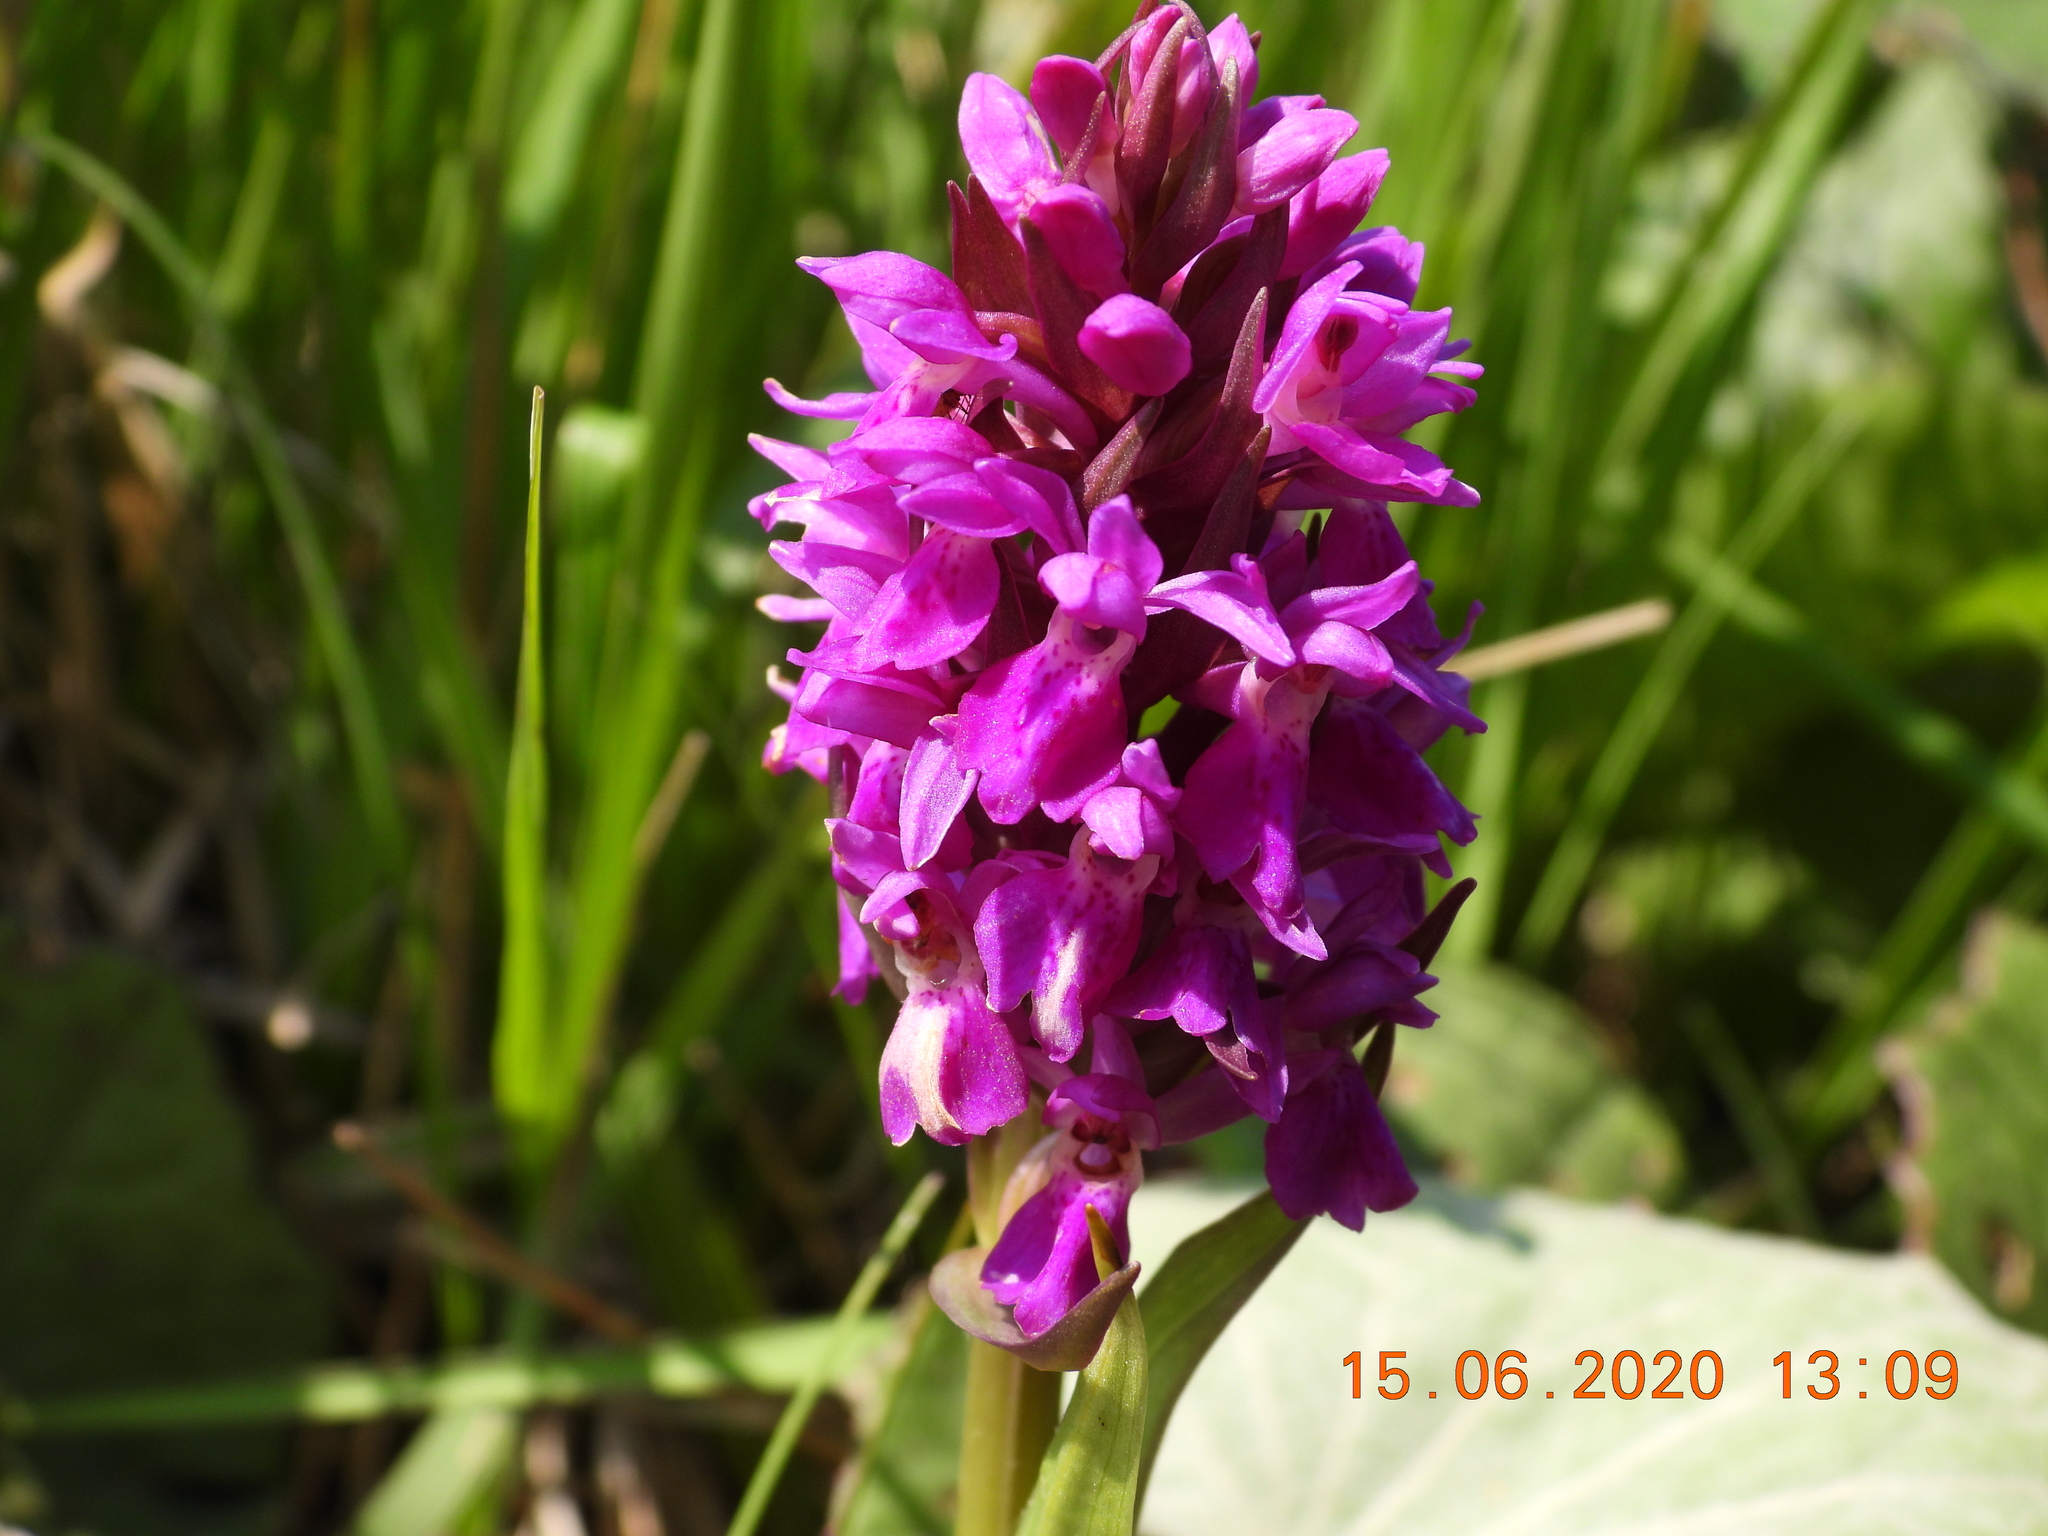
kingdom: Plantae
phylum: Tracheophyta
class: Liliopsida
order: Asparagales
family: Orchidaceae
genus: Dactylorhiza
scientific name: Dactylorhiza majalis
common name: Marsh orchid
